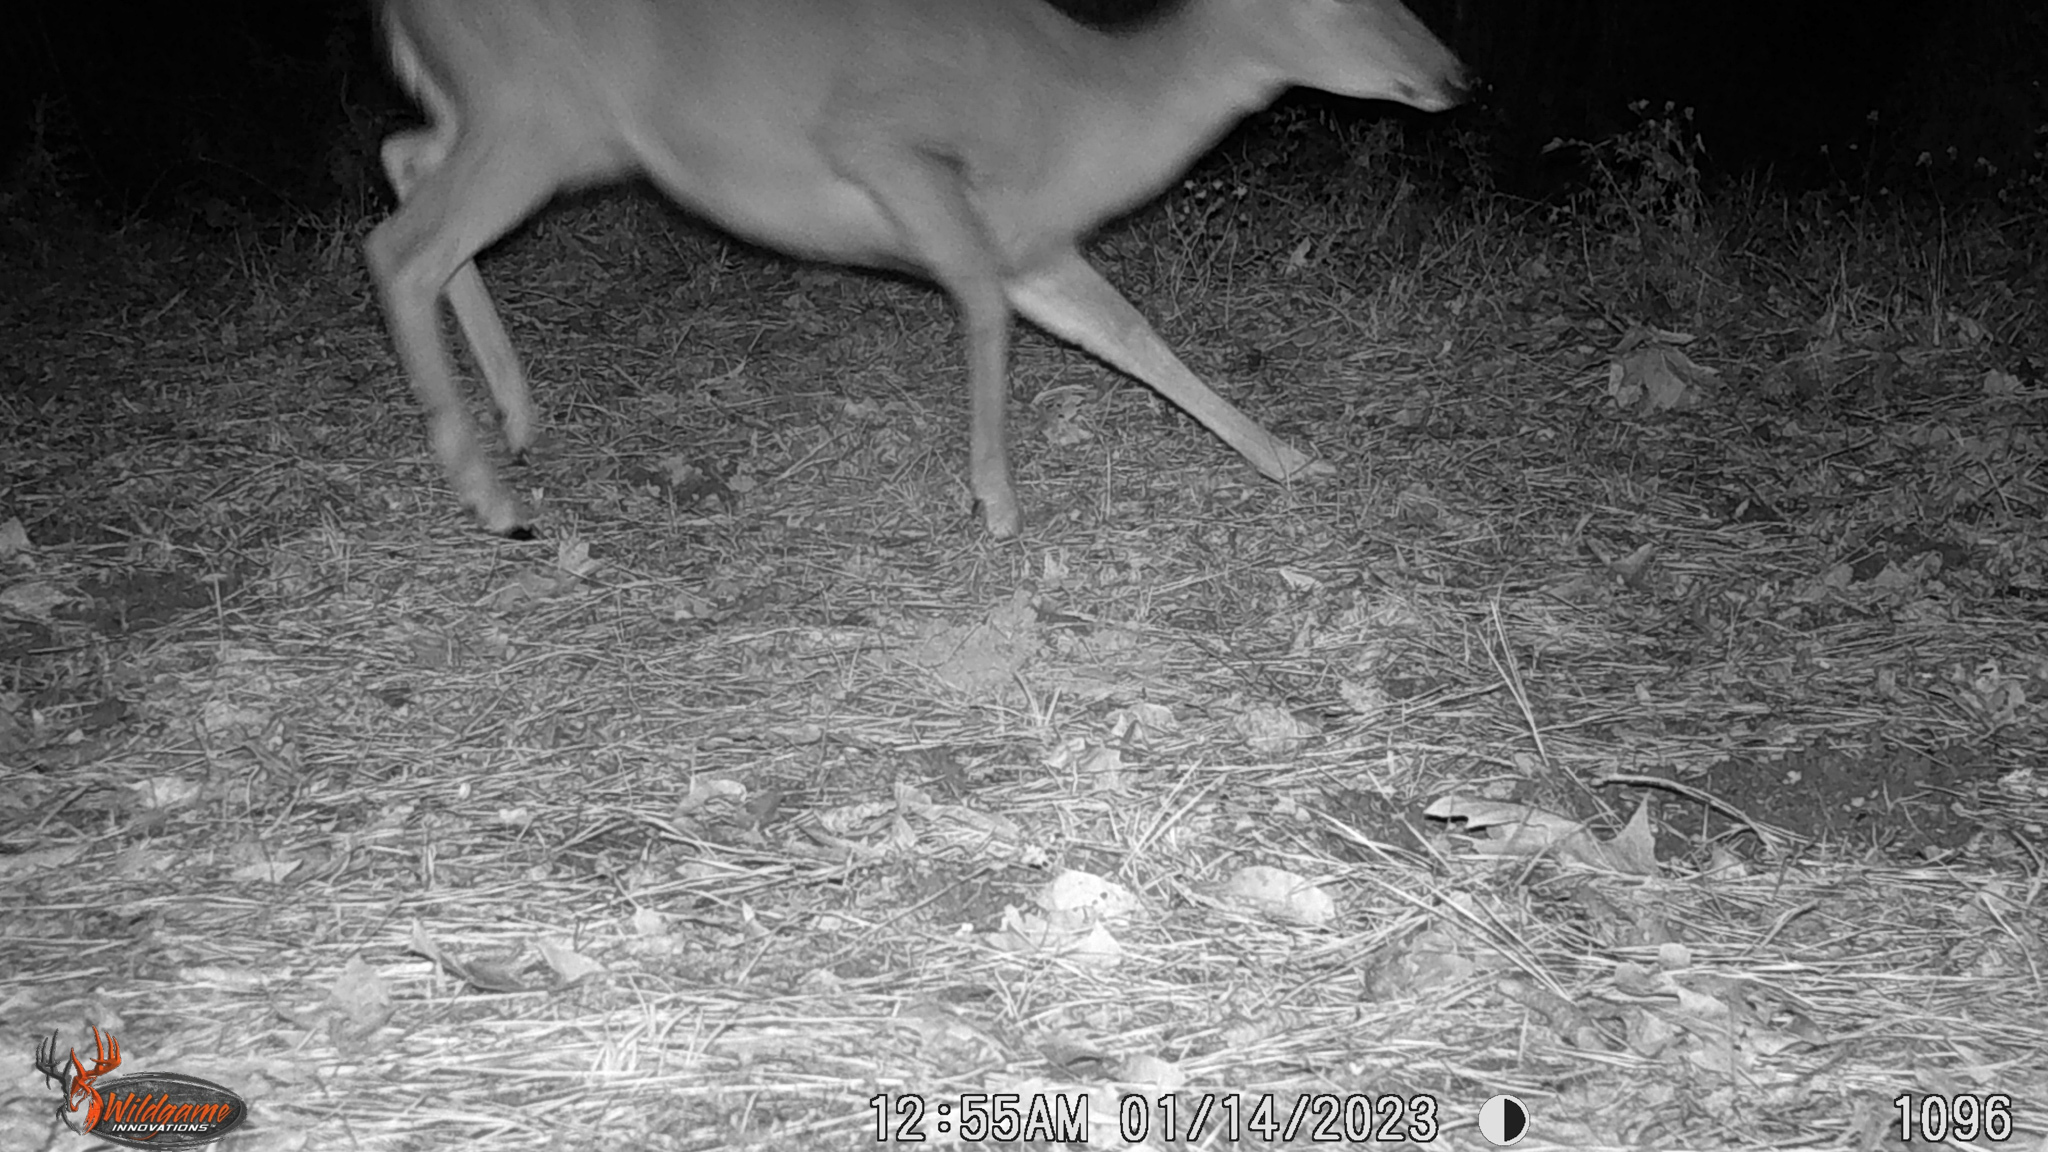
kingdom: Animalia
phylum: Chordata
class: Mammalia
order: Artiodactyla
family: Cervidae
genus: Odocoileus
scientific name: Odocoileus virginianus
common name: White-tailed deer
